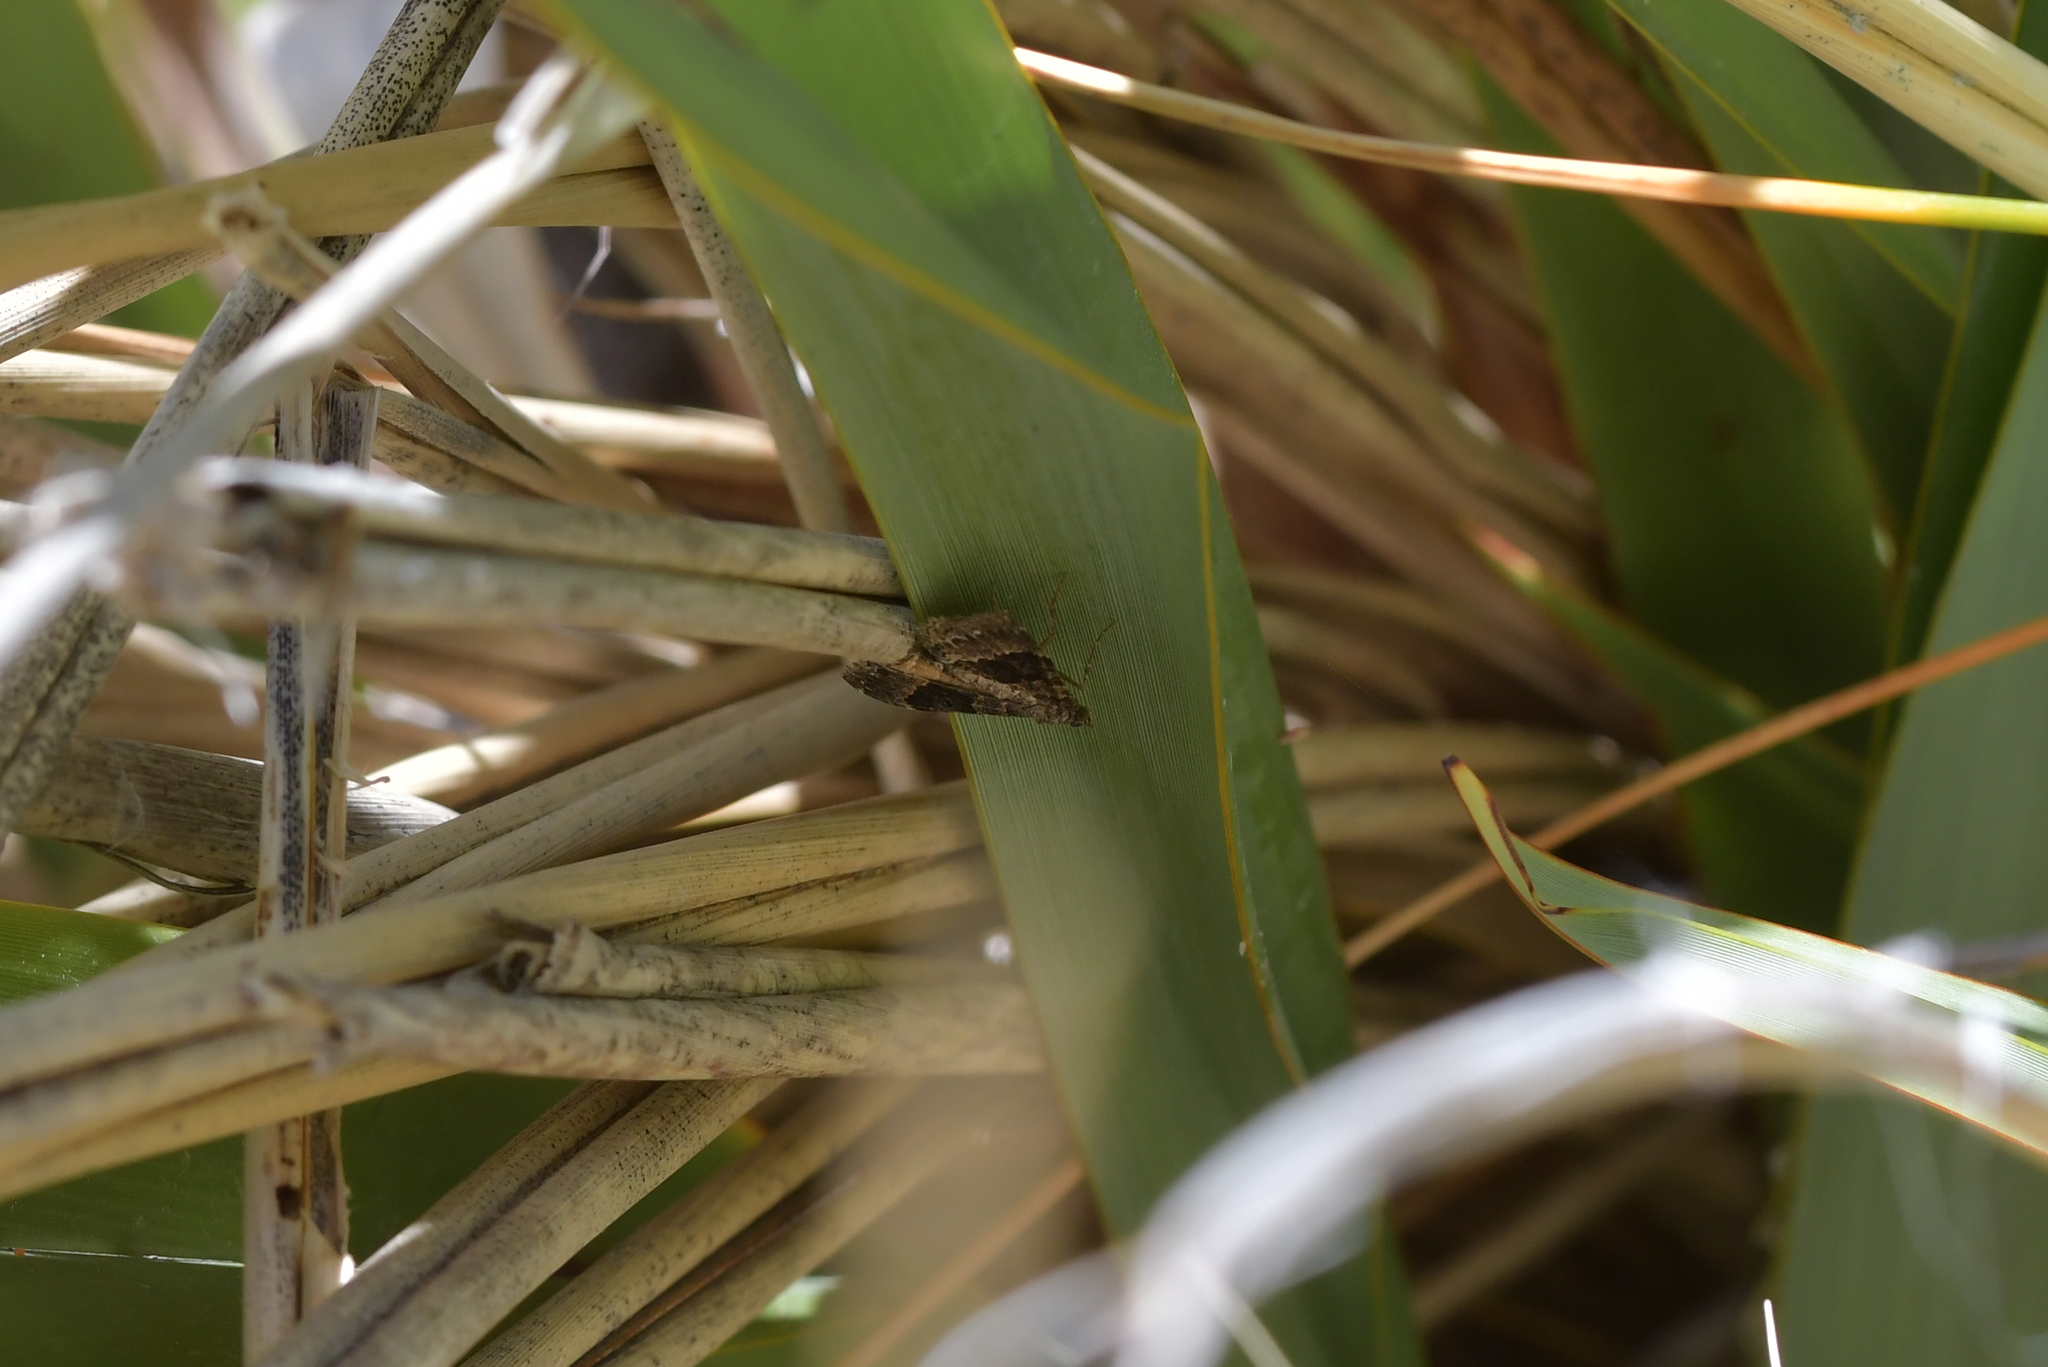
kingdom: Animalia
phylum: Arthropoda
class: Insecta
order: Lepidoptera
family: Geometridae
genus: Hydriomena
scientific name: Hydriomena deltoidata
